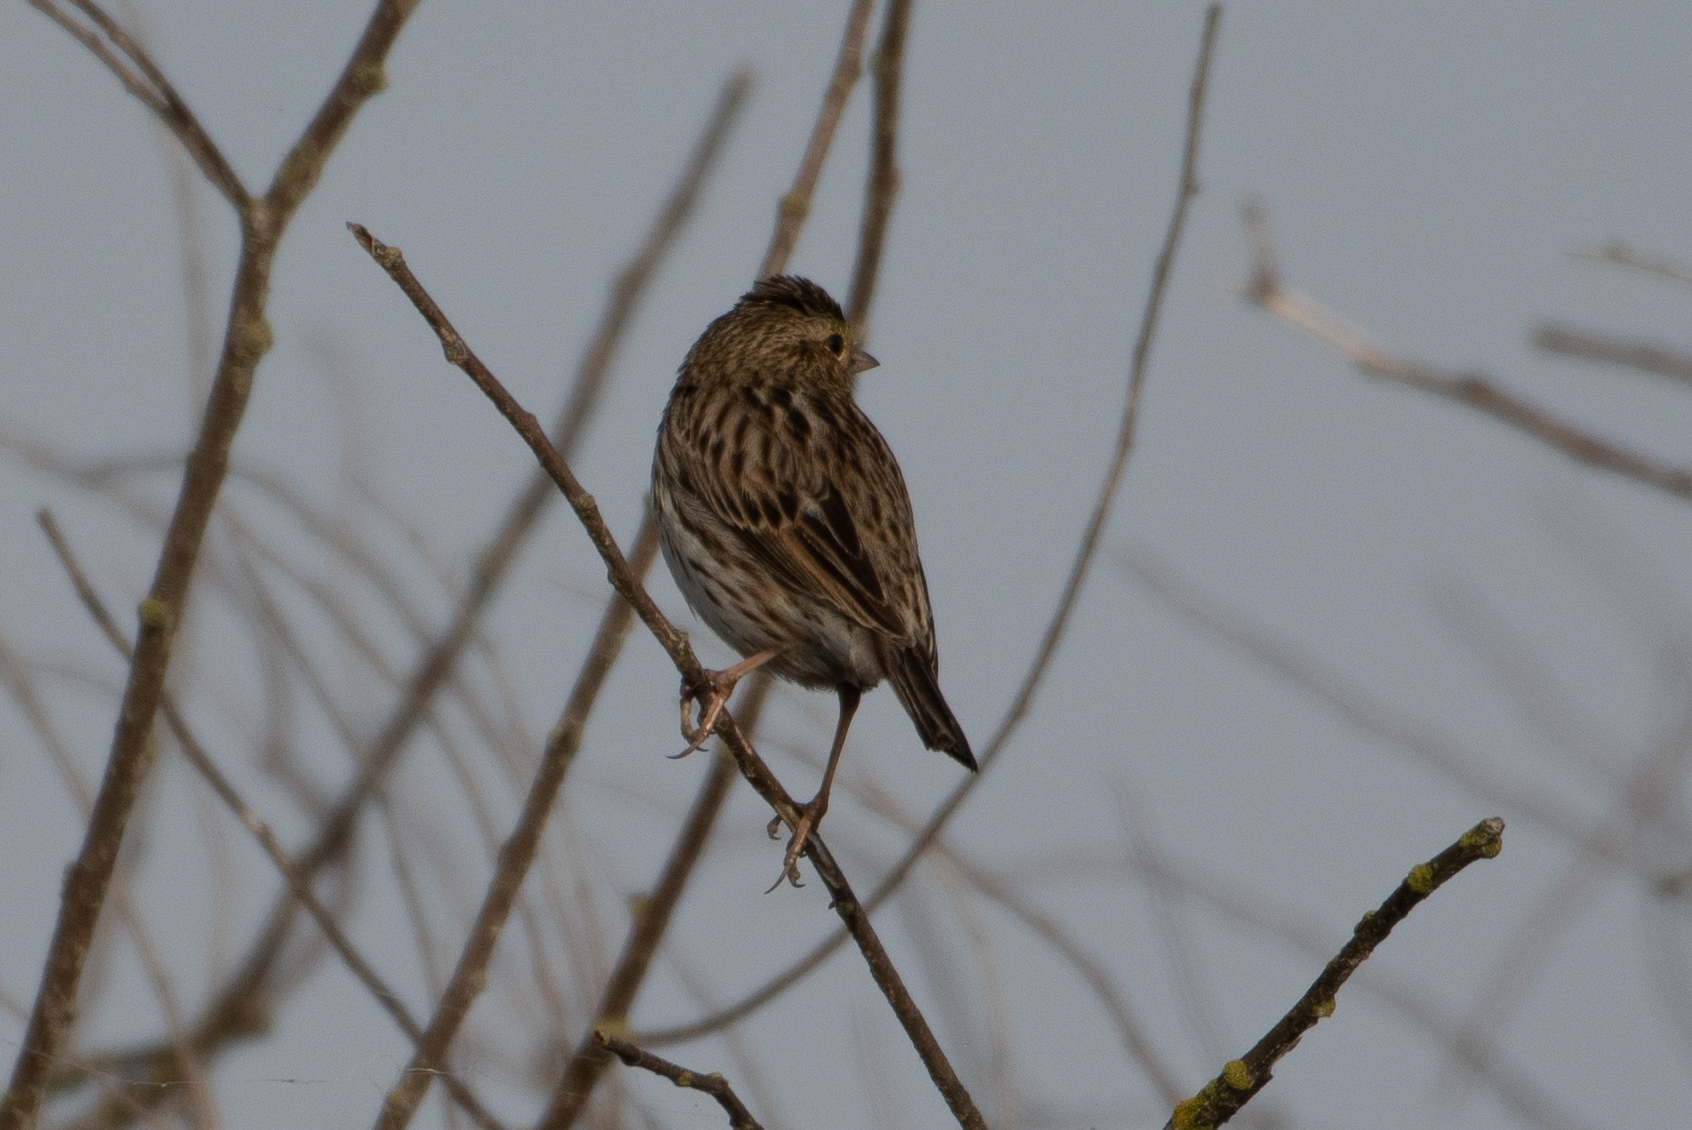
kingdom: Animalia
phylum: Chordata
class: Aves
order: Passeriformes
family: Passerellidae
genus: Passerculus
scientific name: Passerculus sandwichensis
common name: Savannah sparrow
